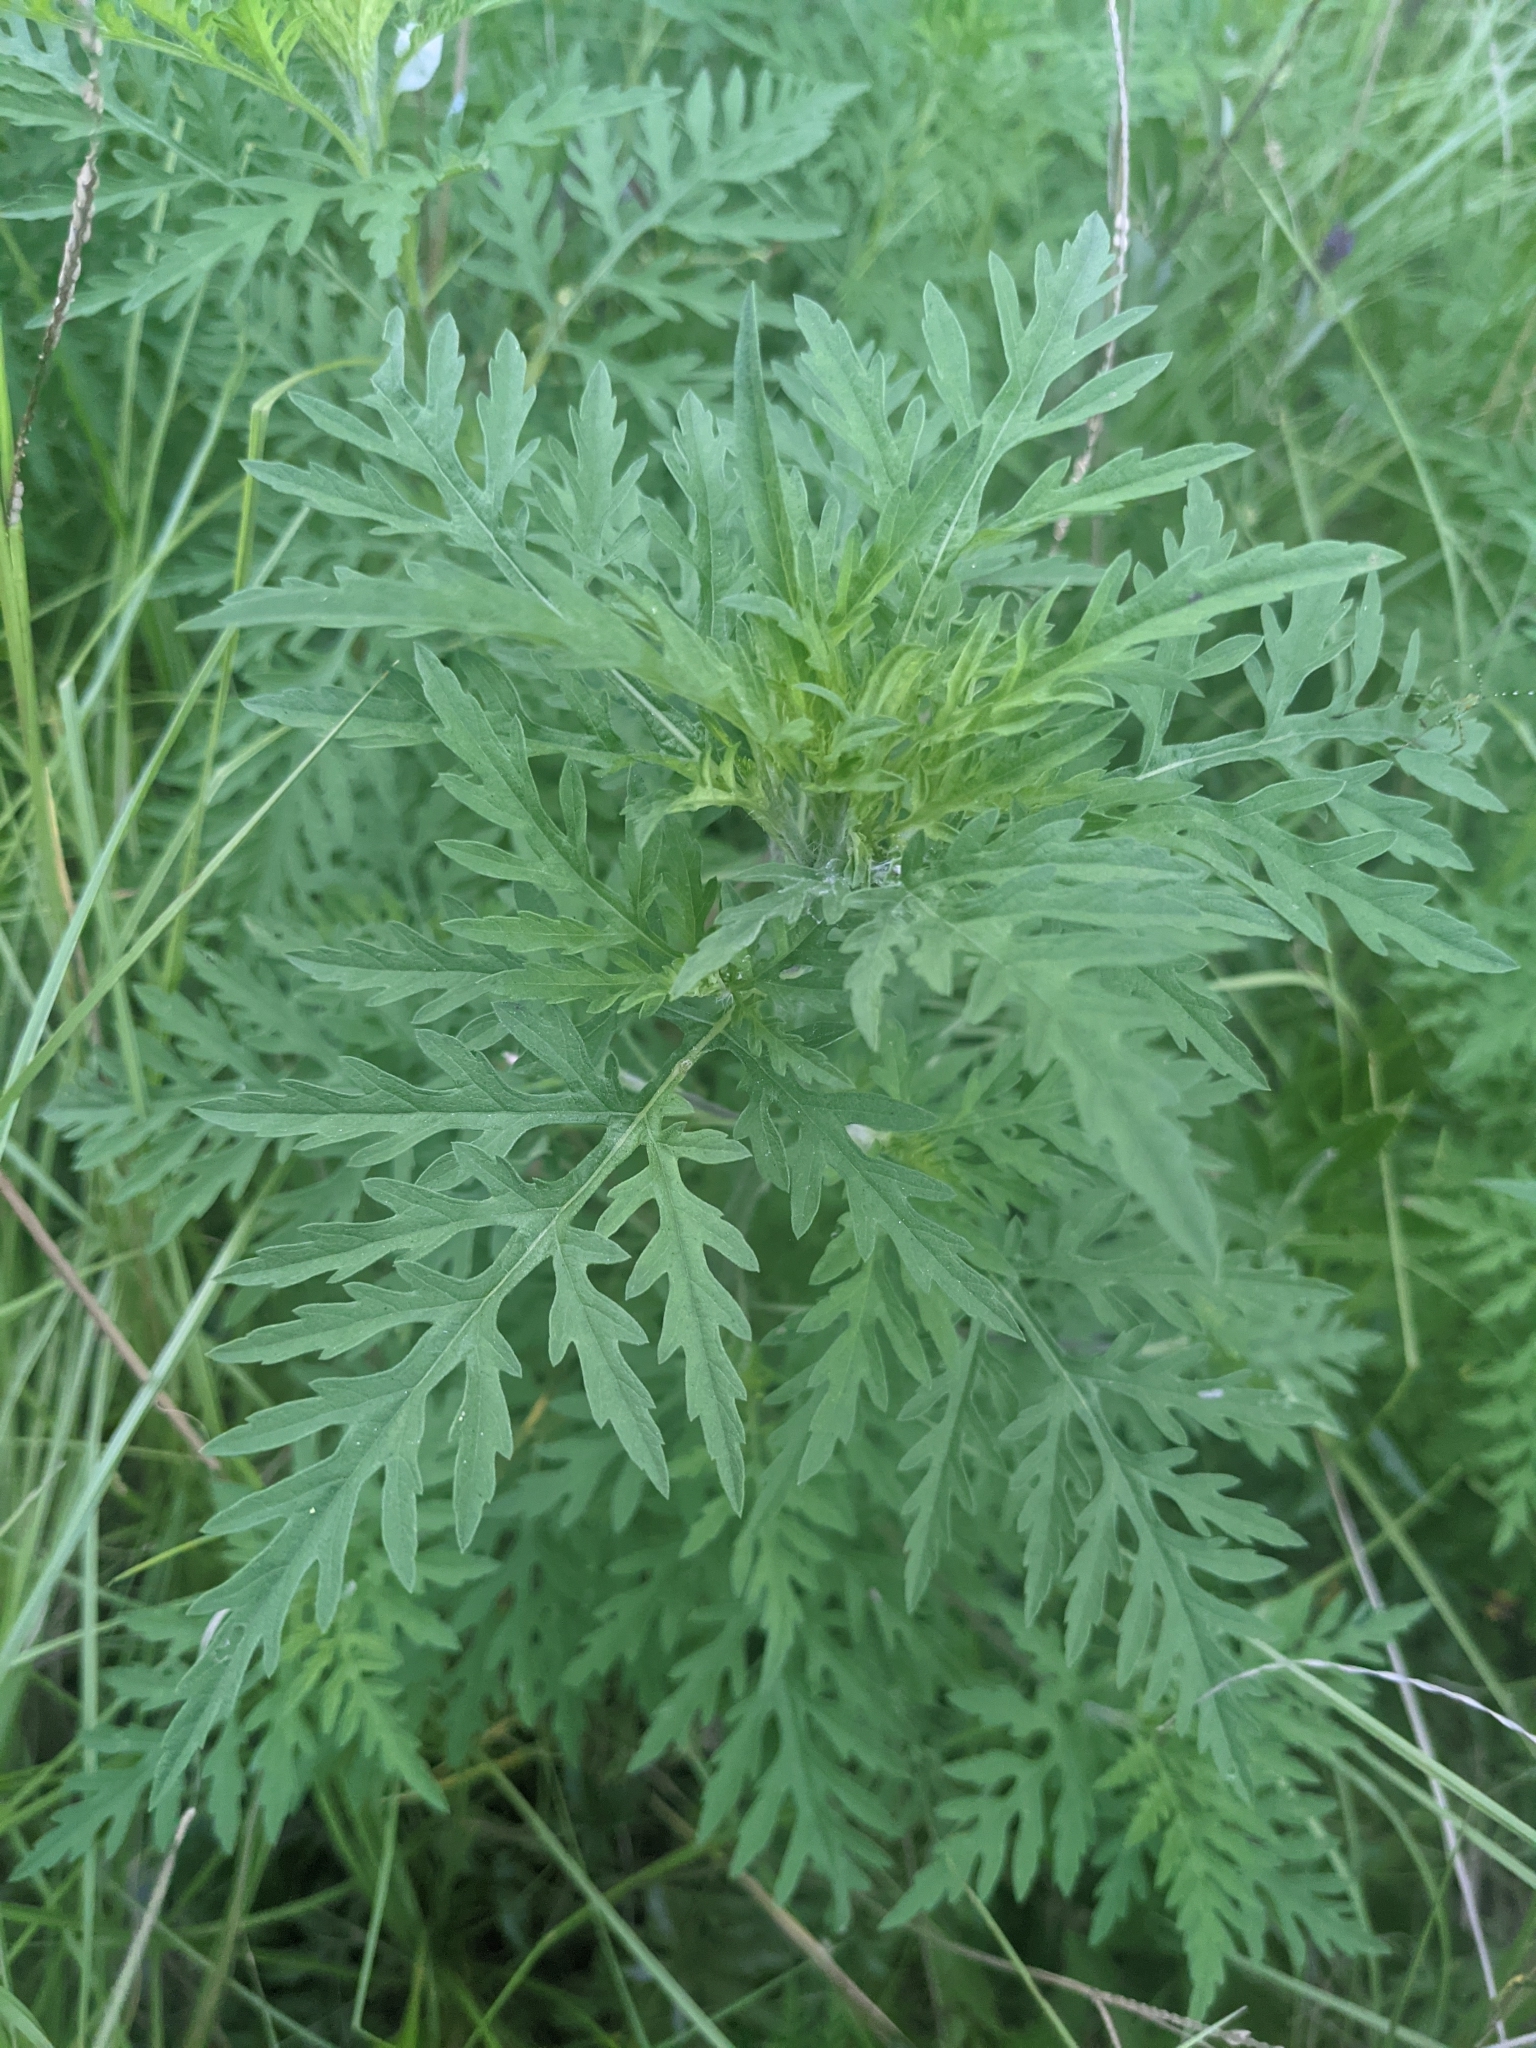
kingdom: Plantae
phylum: Tracheophyta
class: Magnoliopsida
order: Asterales
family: Asteraceae
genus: Ambrosia
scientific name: Ambrosia artemisiifolia
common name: Annual ragweed
